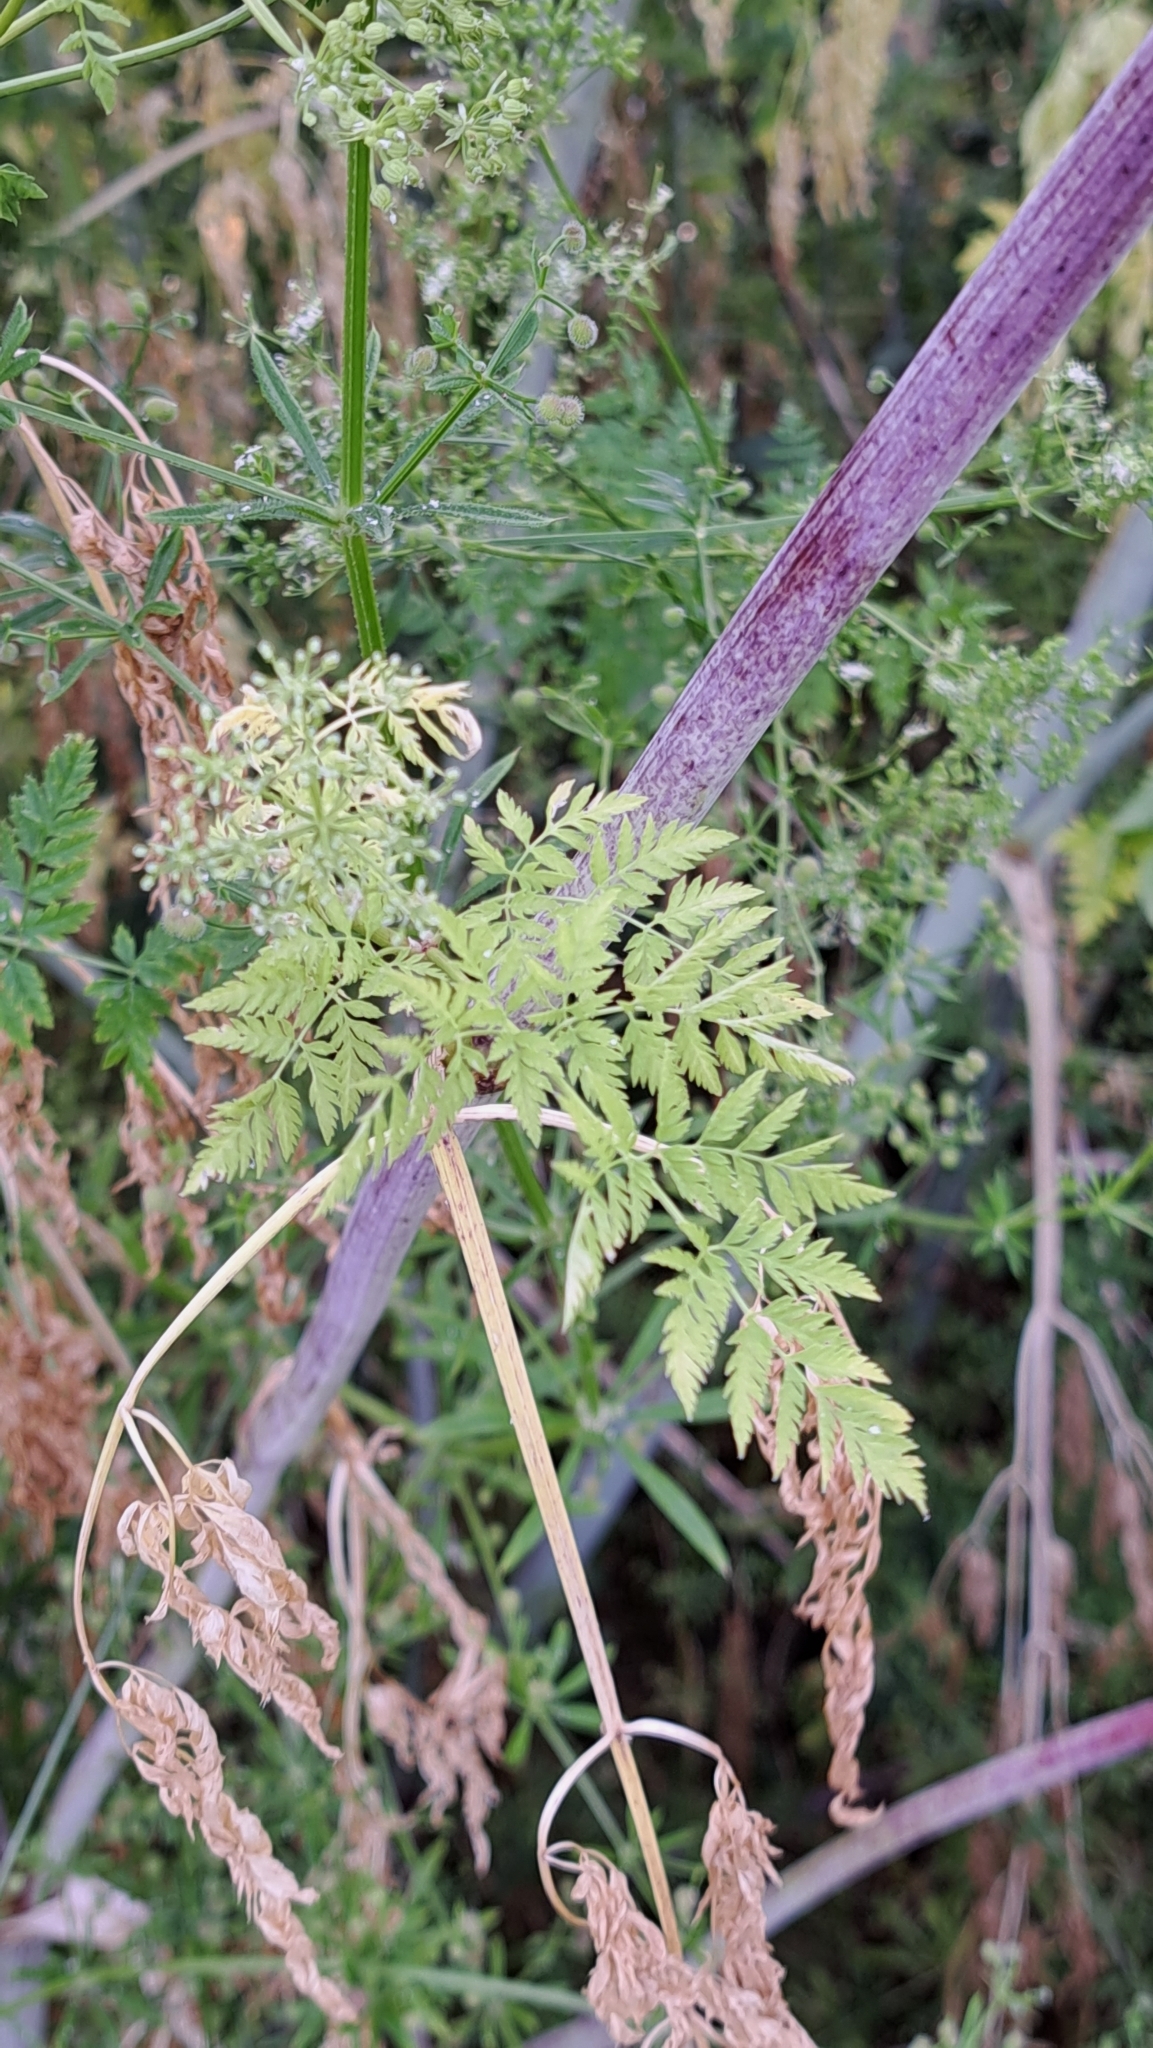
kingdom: Plantae
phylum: Tracheophyta
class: Magnoliopsida
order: Apiales
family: Apiaceae
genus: Conium
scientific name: Conium maculatum
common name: Hemlock
